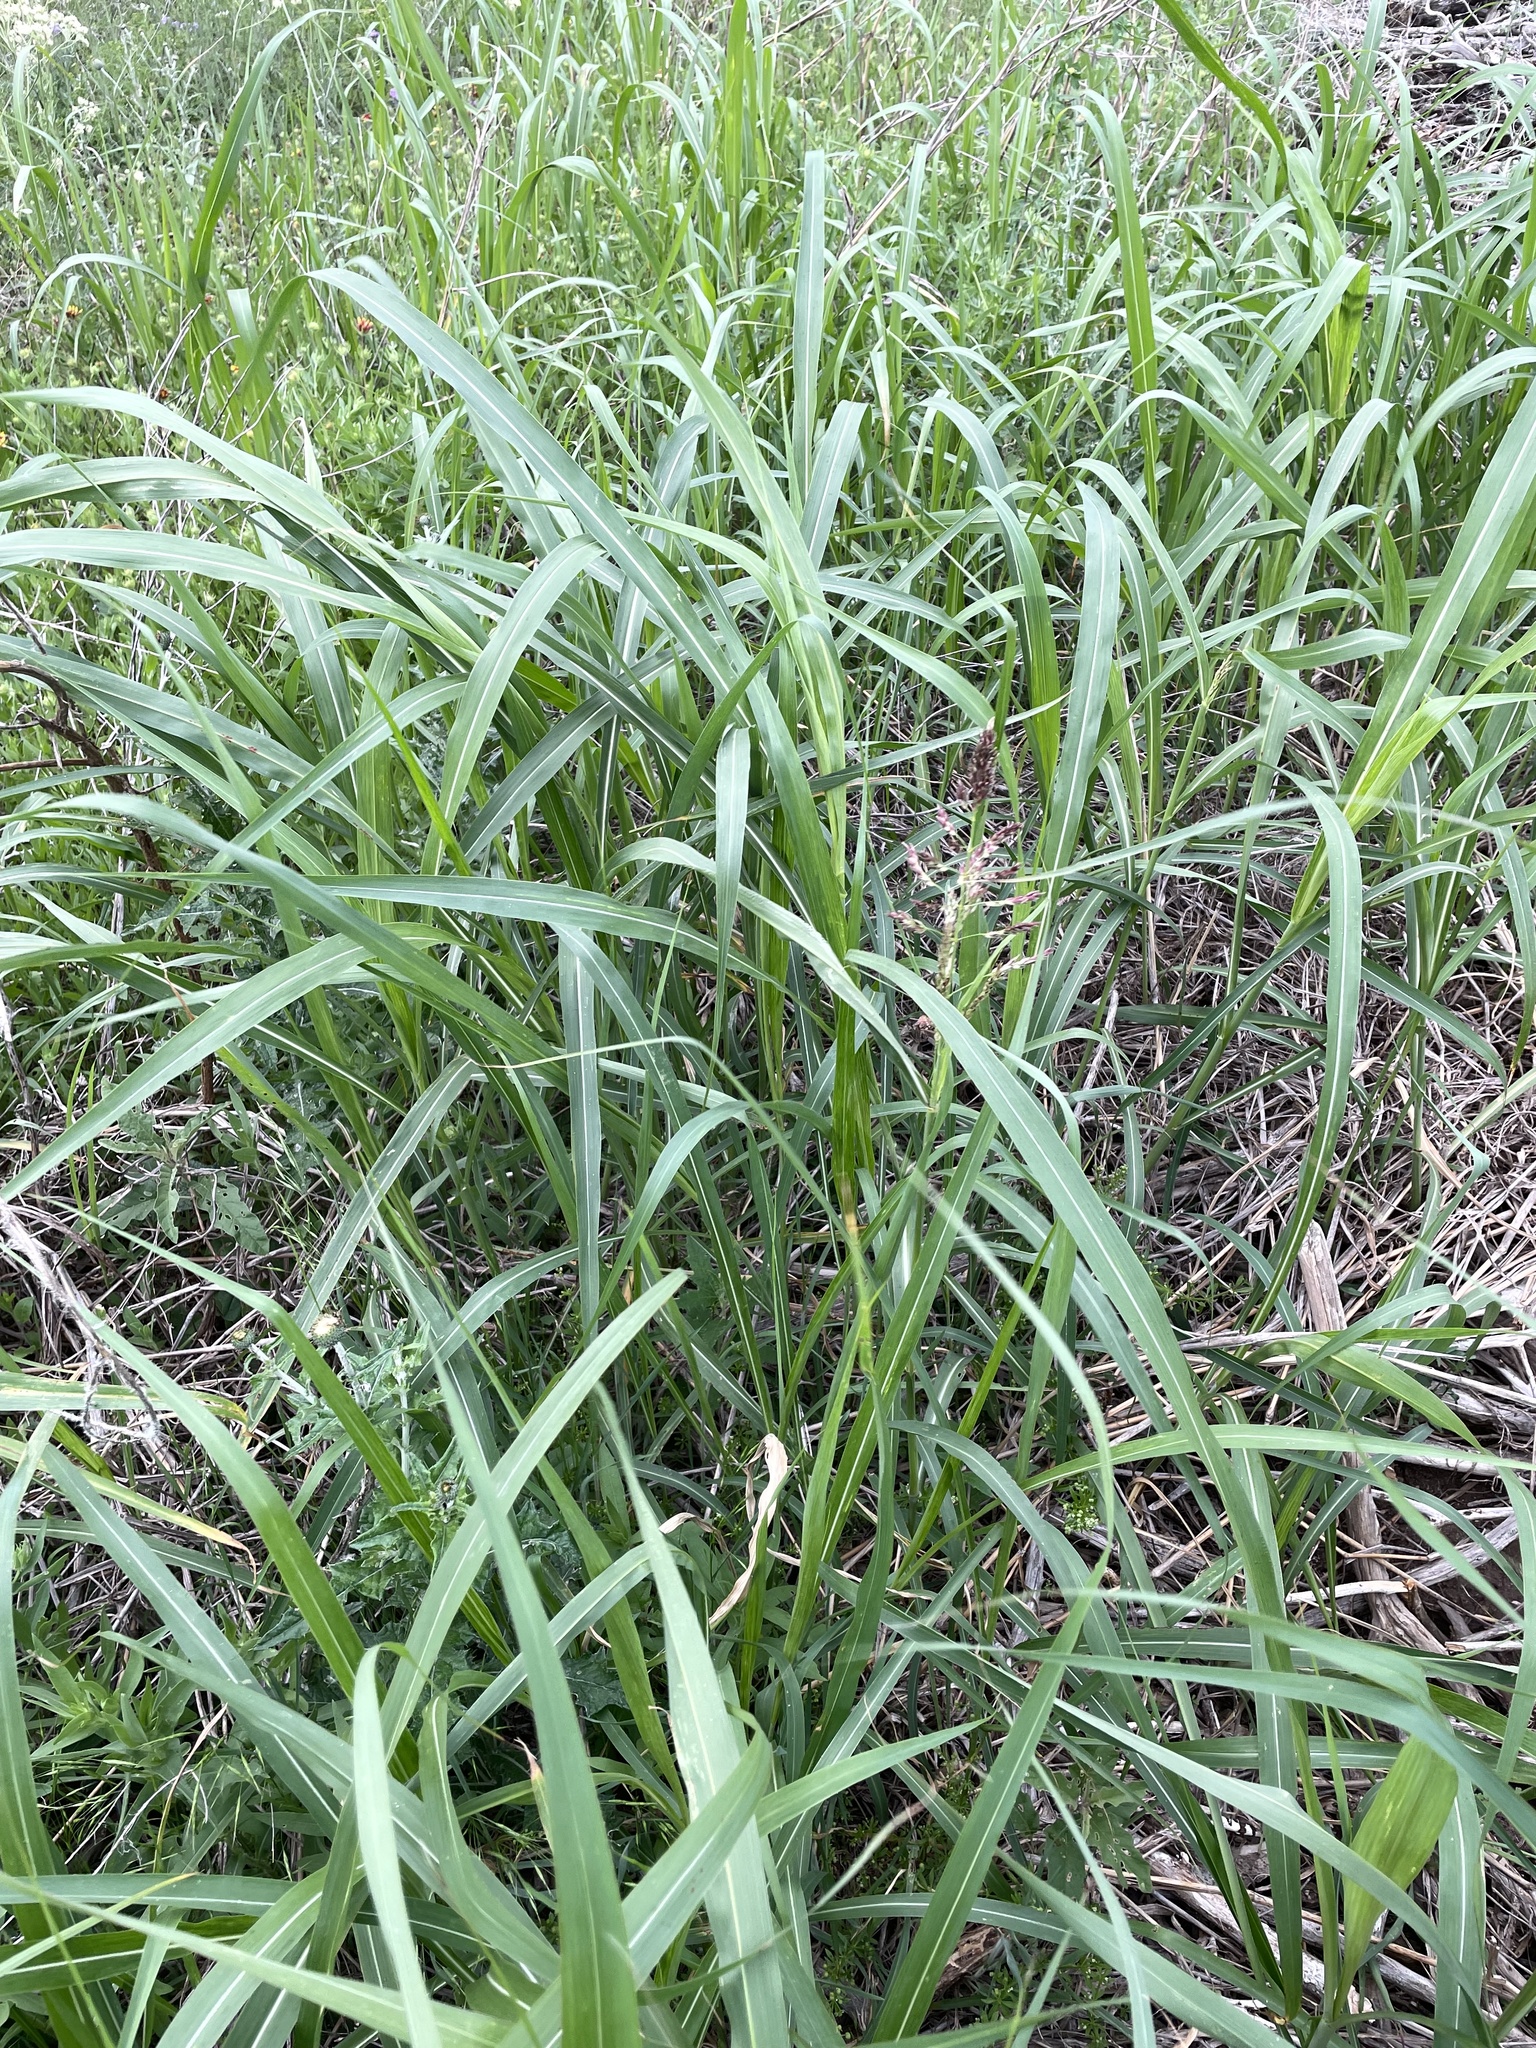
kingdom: Plantae
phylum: Tracheophyta
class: Liliopsida
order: Poales
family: Poaceae
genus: Sorghum
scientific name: Sorghum halepense
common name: Johnson-grass
